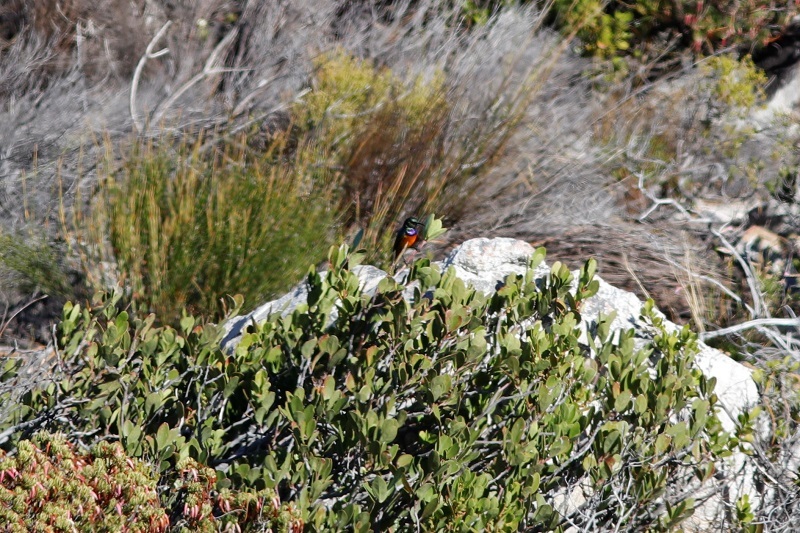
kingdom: Animalia
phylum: Chordata
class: Aves
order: Passeriformes
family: Nectariniidae
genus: Anthobaphes
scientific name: Anthobaphes violacea
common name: Orange-breasted sunbird
